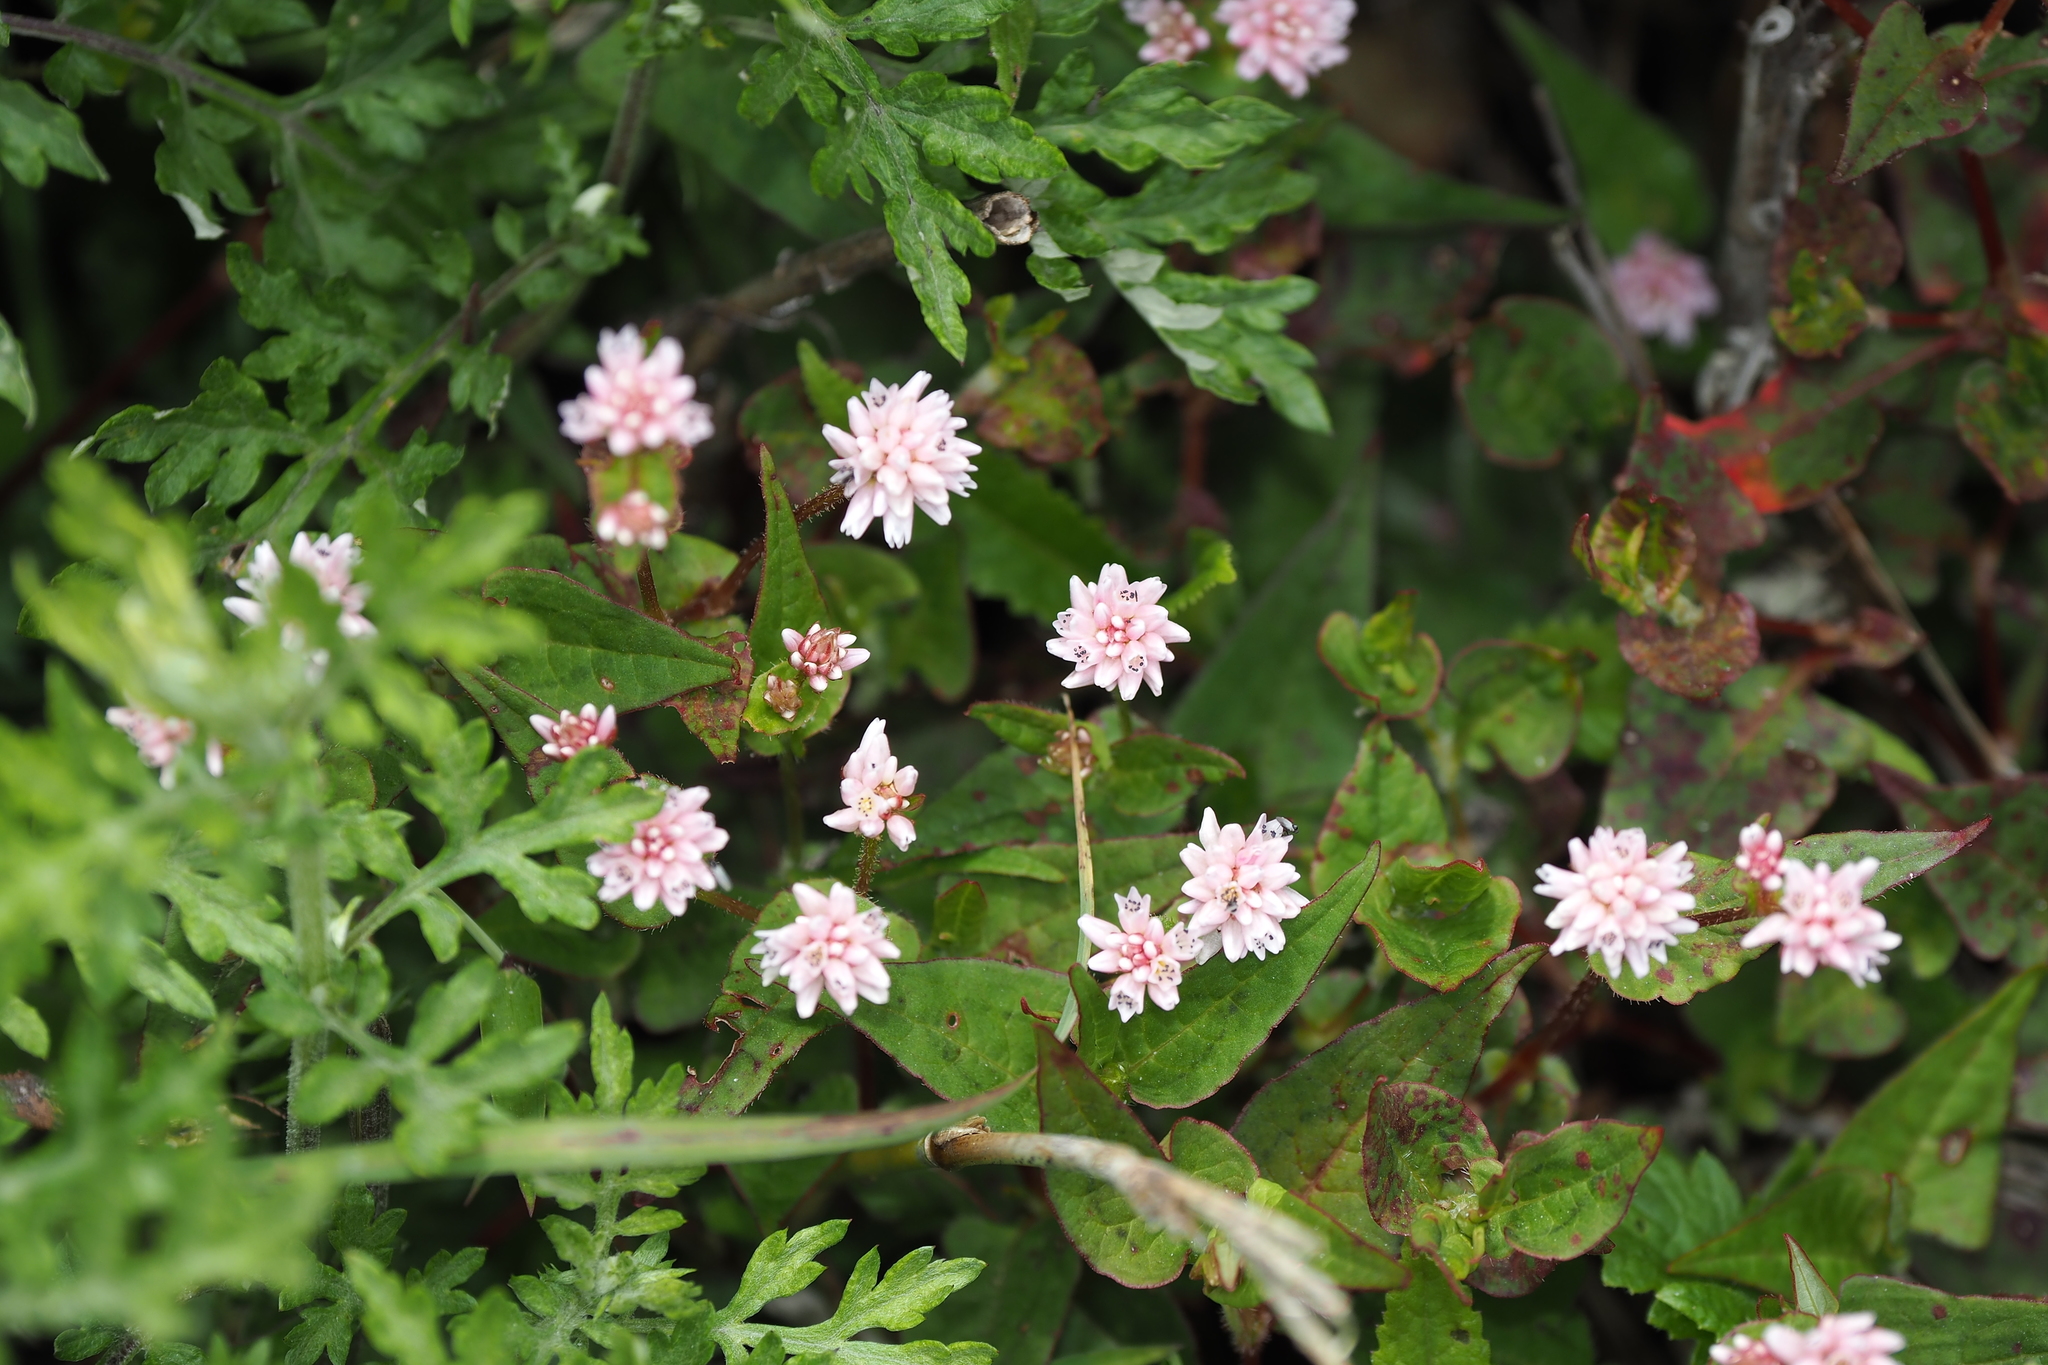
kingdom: Plantae
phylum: Tracheophyta
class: Magnoliopsida
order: Caryophyllales
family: Polygonaceae
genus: Persicaria
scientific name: Persicaria runcinata
